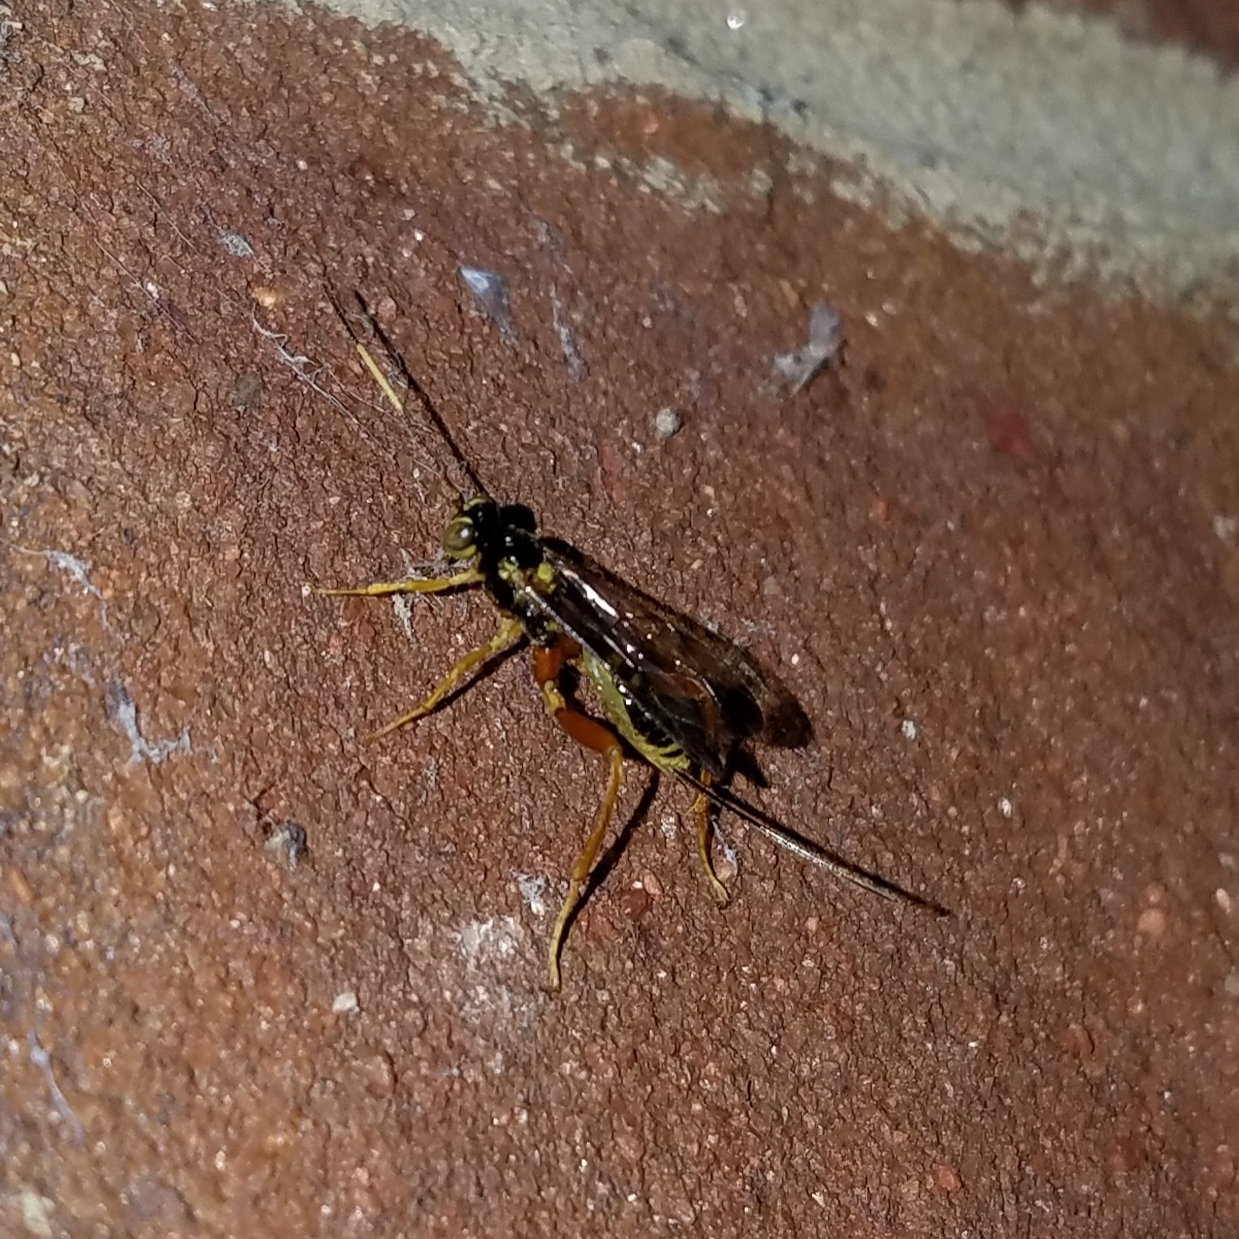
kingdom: Animalia
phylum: Arthropoda
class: Insecta
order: Hymenoptera
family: Ichneumonidae
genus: Spilopteron
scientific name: Spilopteron occiputale
